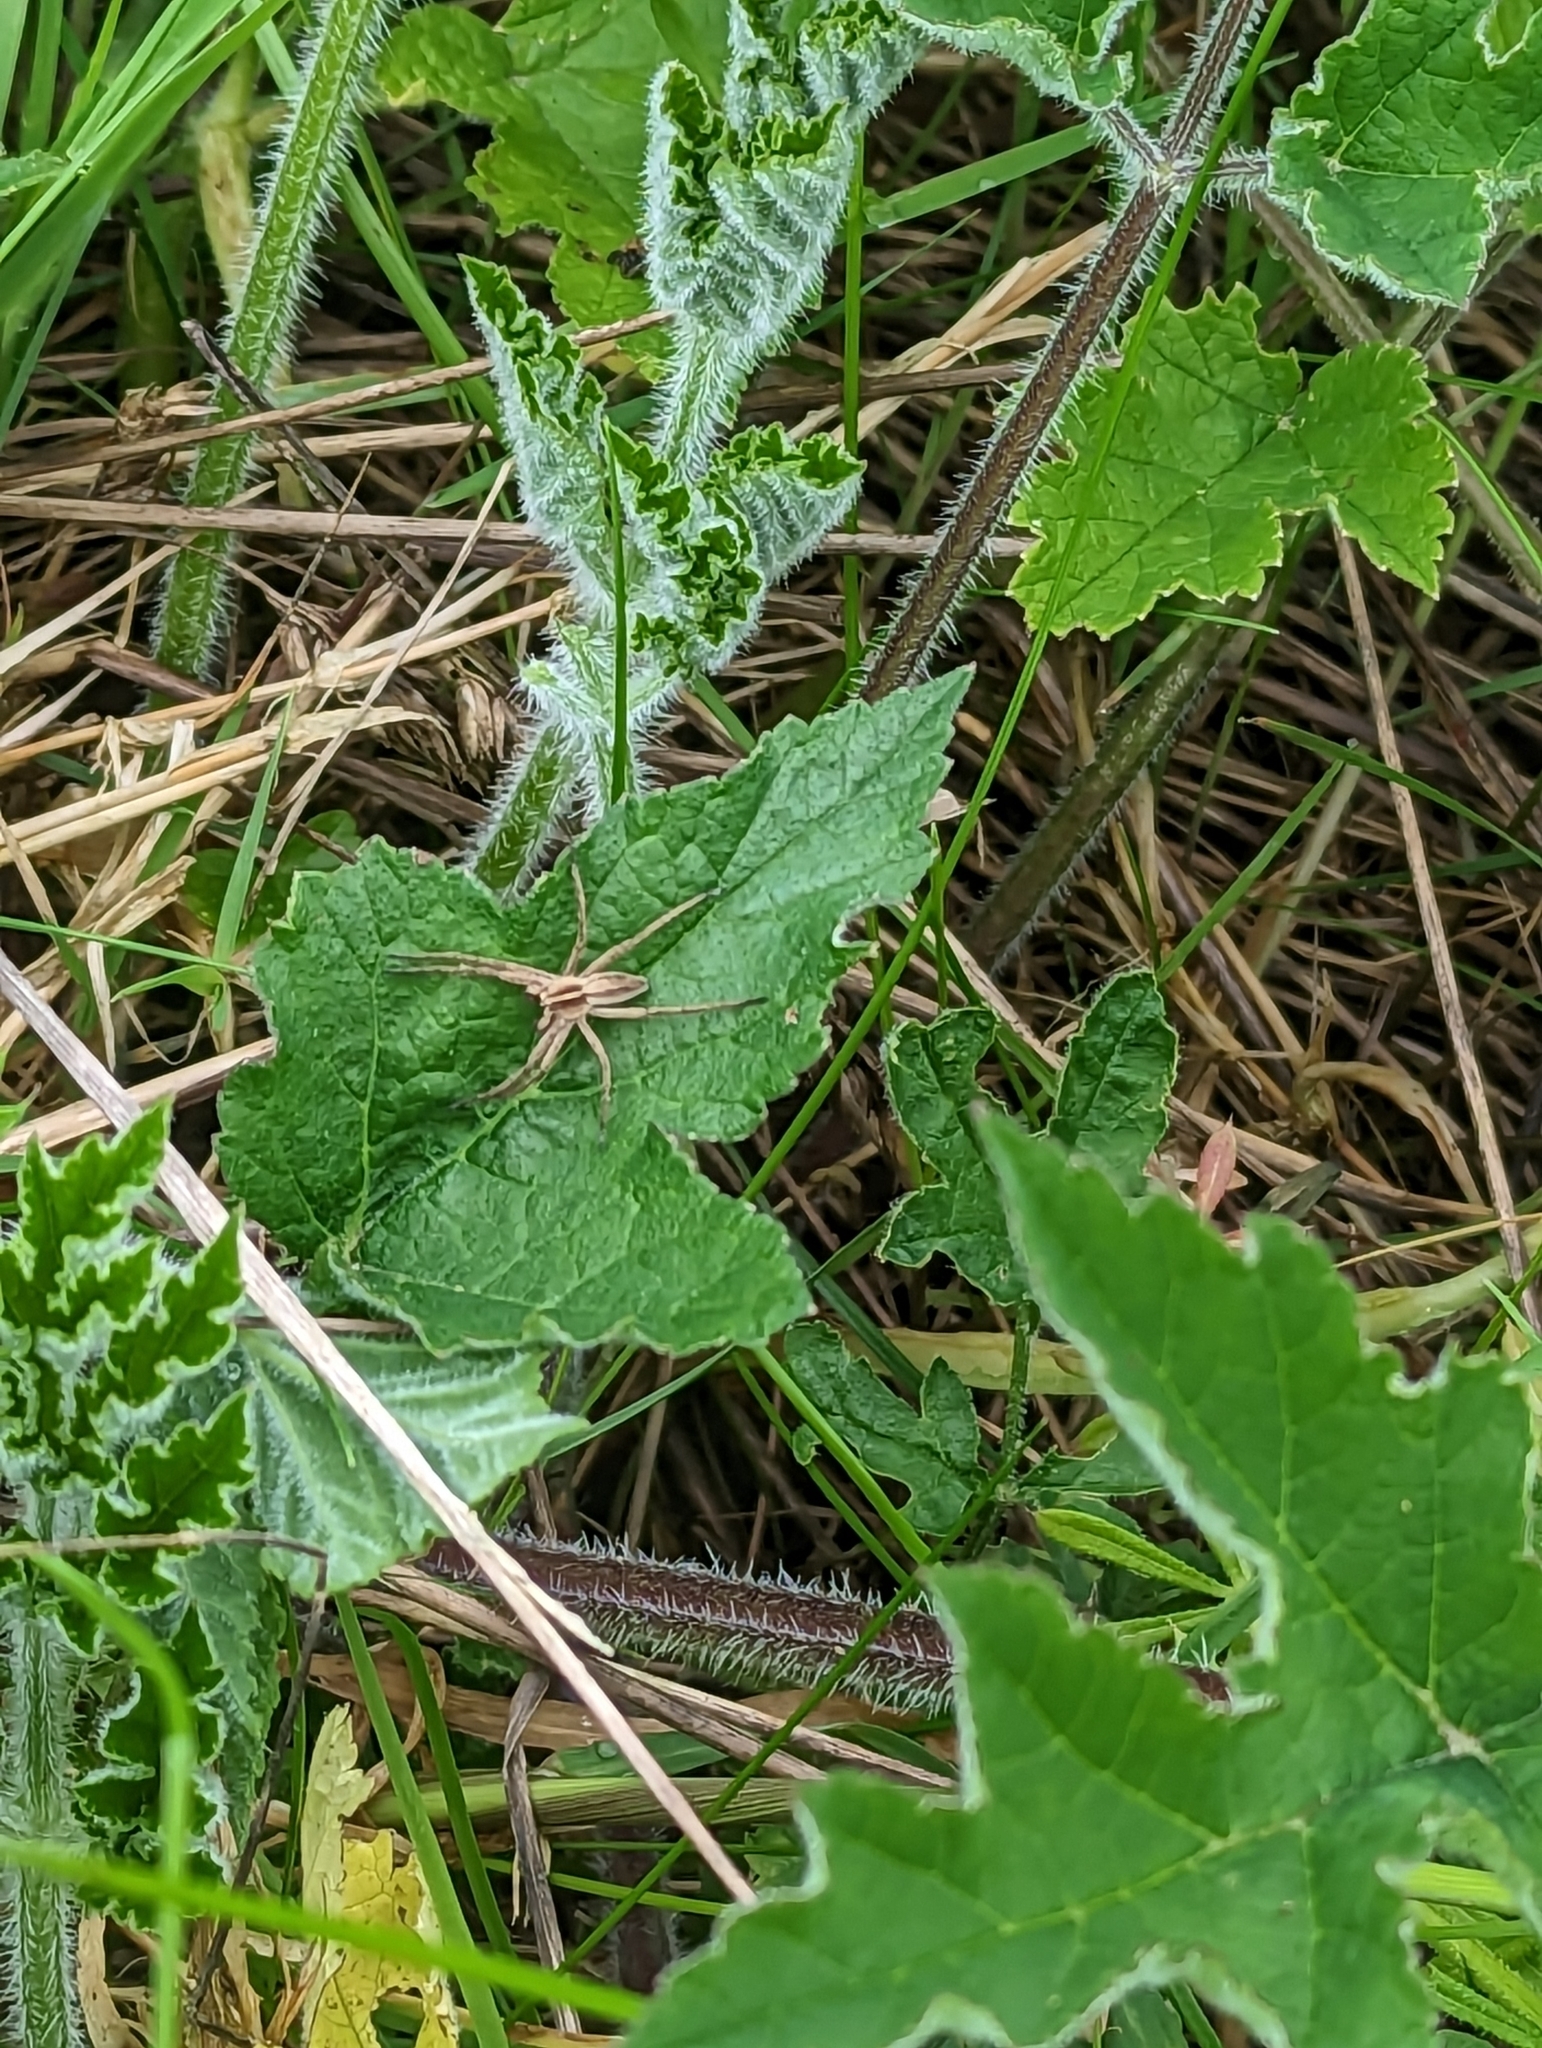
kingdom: Animalia
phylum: Arthropoda
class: Arachnida
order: Araneae
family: Pisauridae
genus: Pisaura
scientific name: Pisaura mirabilis
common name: Tent spider
